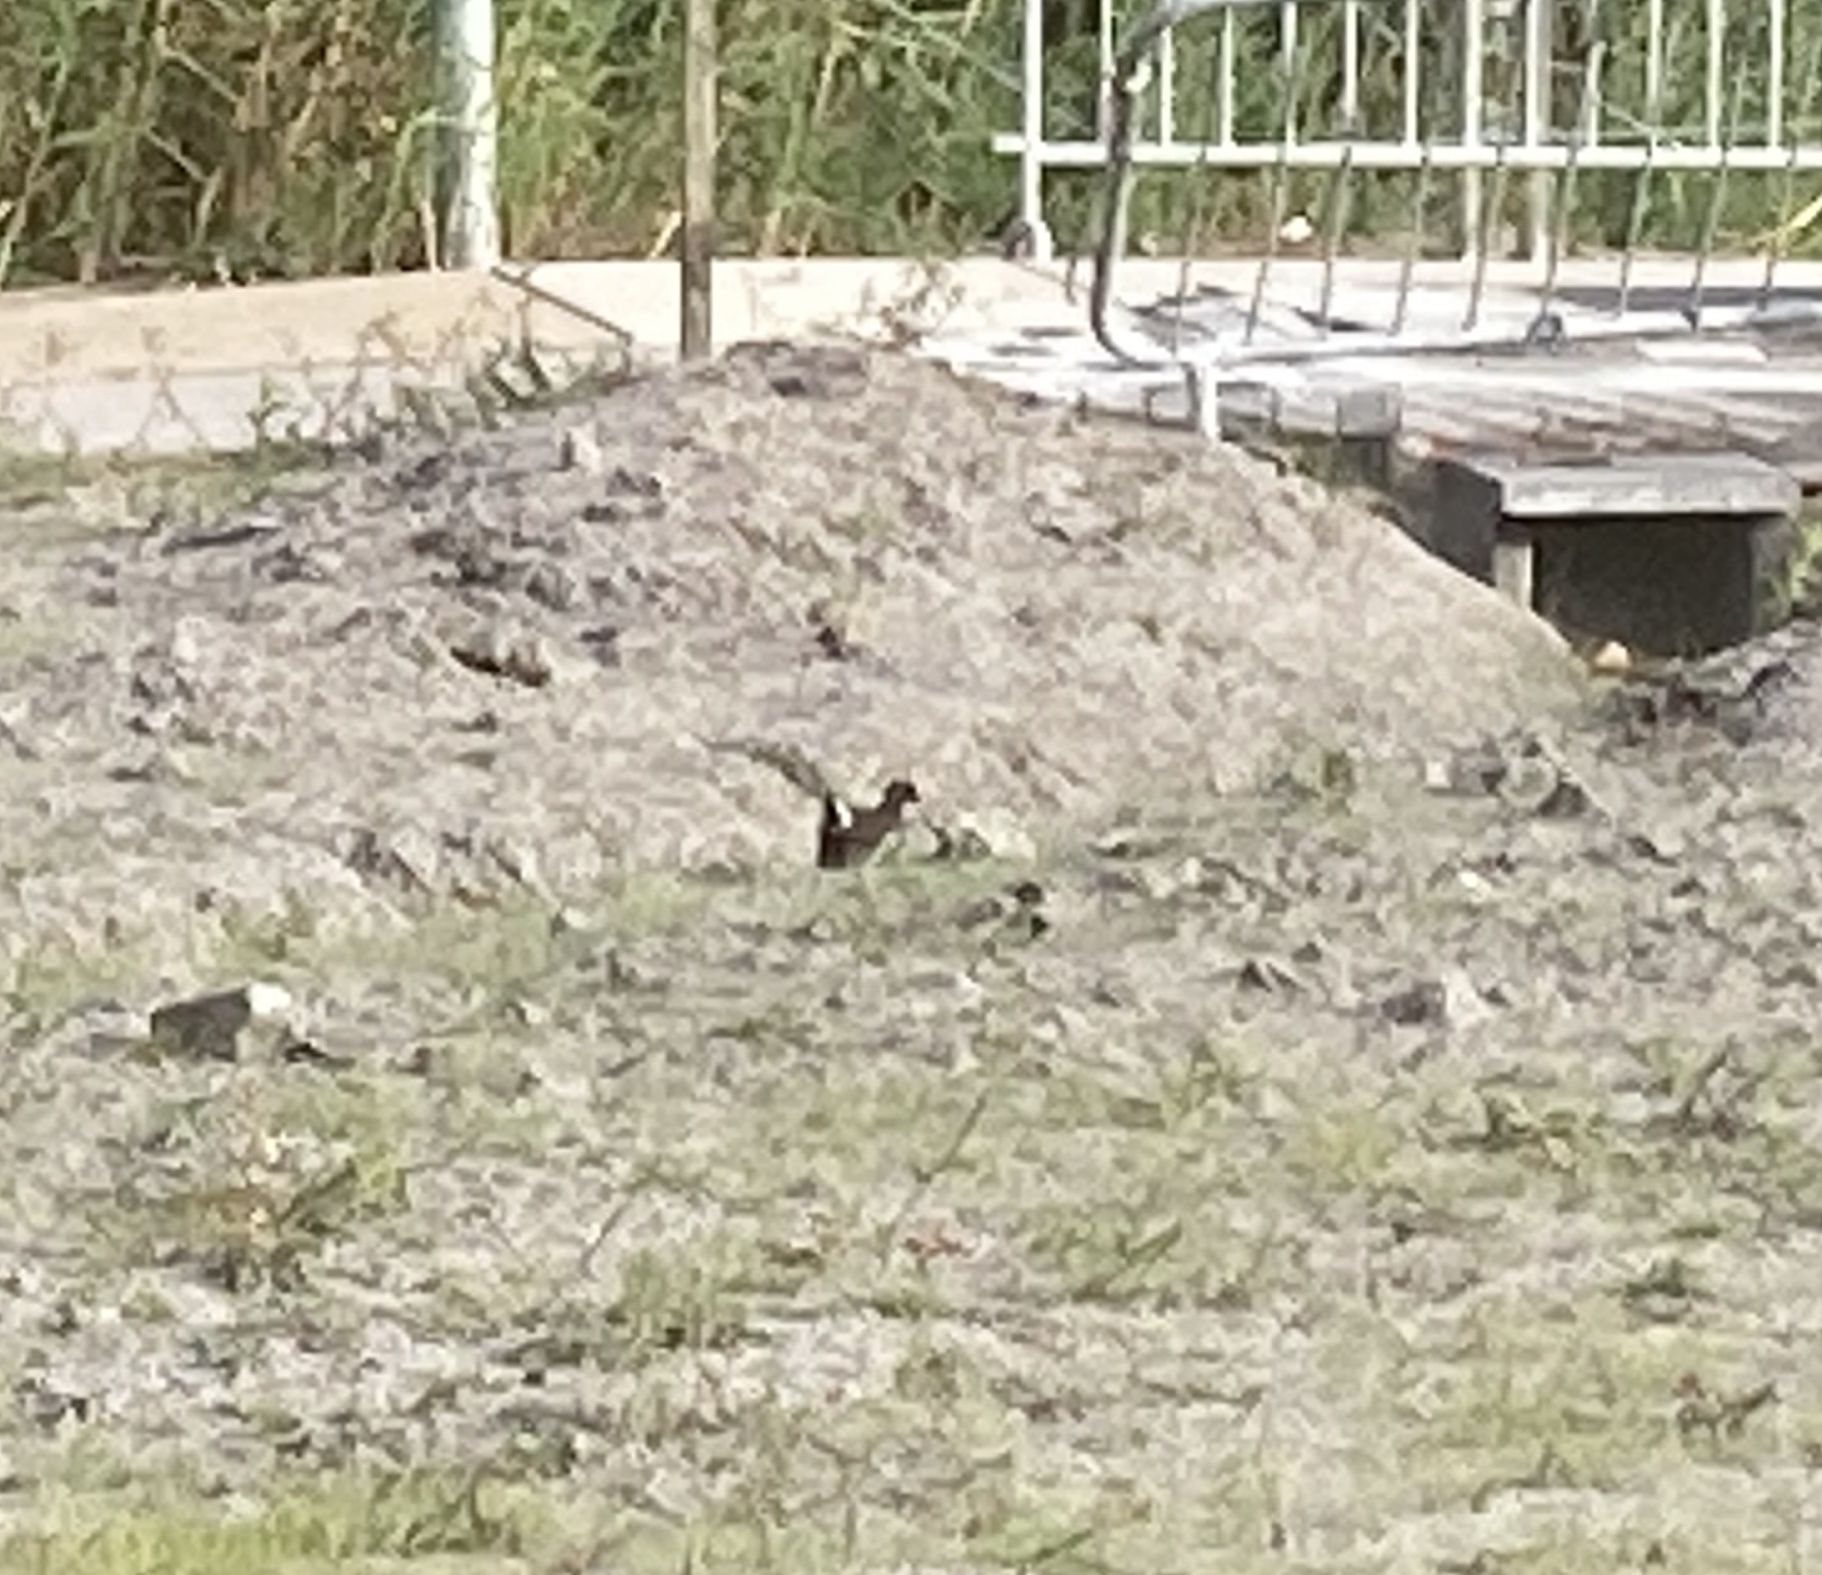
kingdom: Animalia
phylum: Chordata
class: Aves
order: Gruiformes
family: Rallidae
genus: Gallinula
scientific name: Gallinula chloropus
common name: Common moorhen
